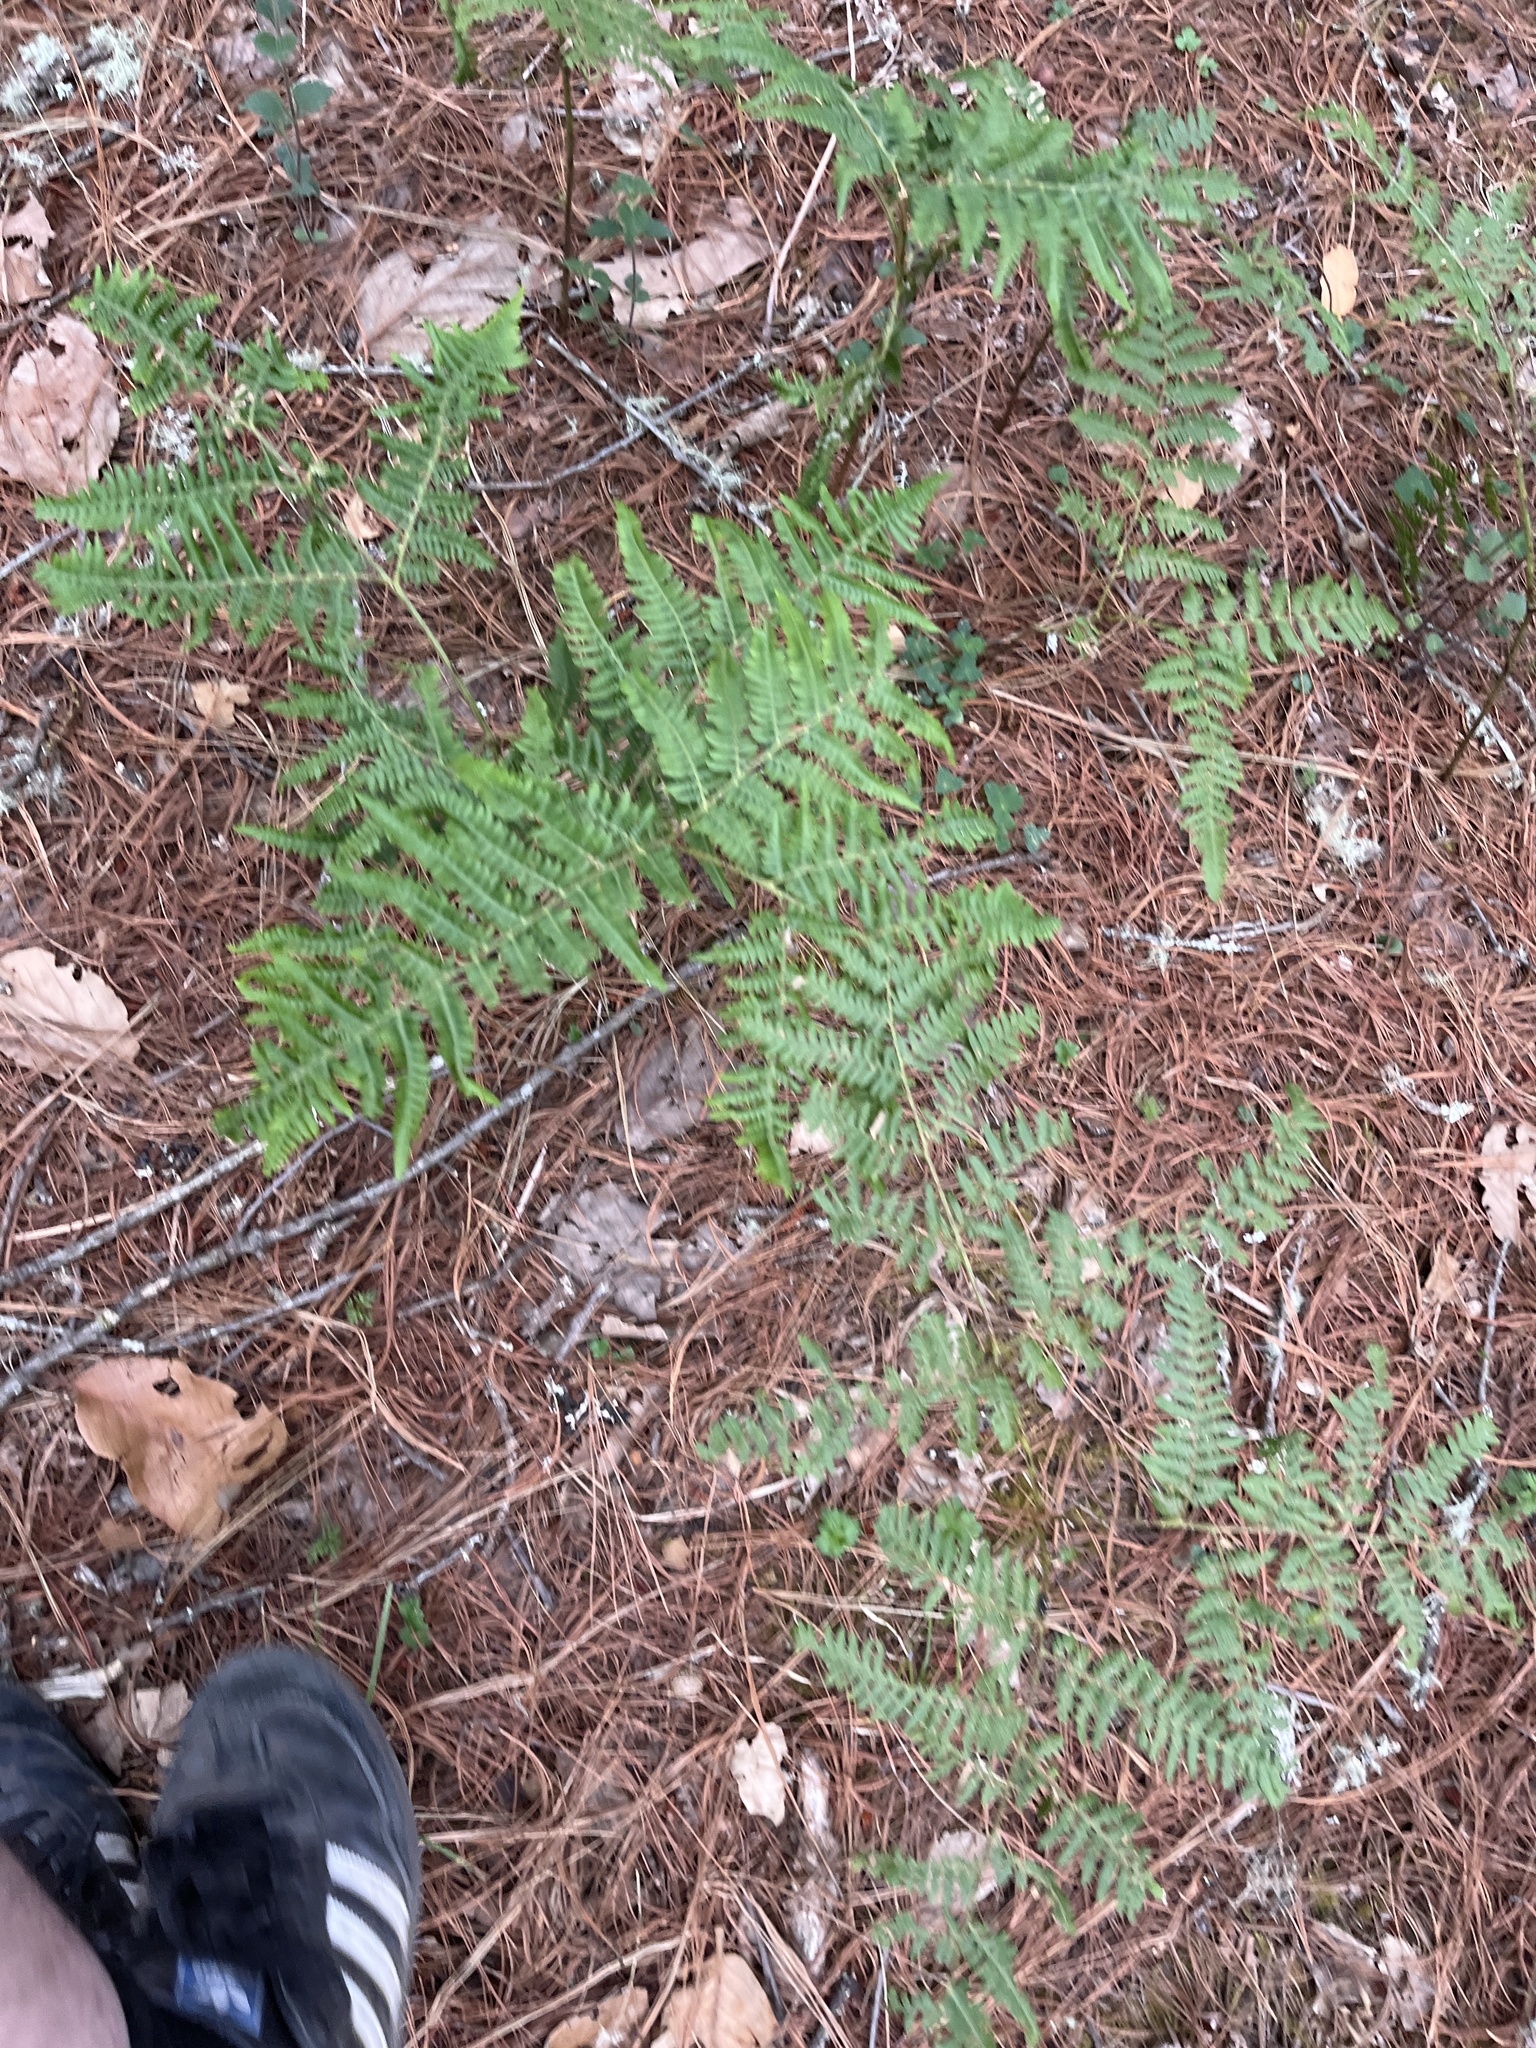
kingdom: Plantae
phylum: Tracheophyta
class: Polypodiopsida
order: Polypodiales
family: Dennstaedtiaceae
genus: Pteridium
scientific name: Pteridium aquilinum
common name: Bracken
